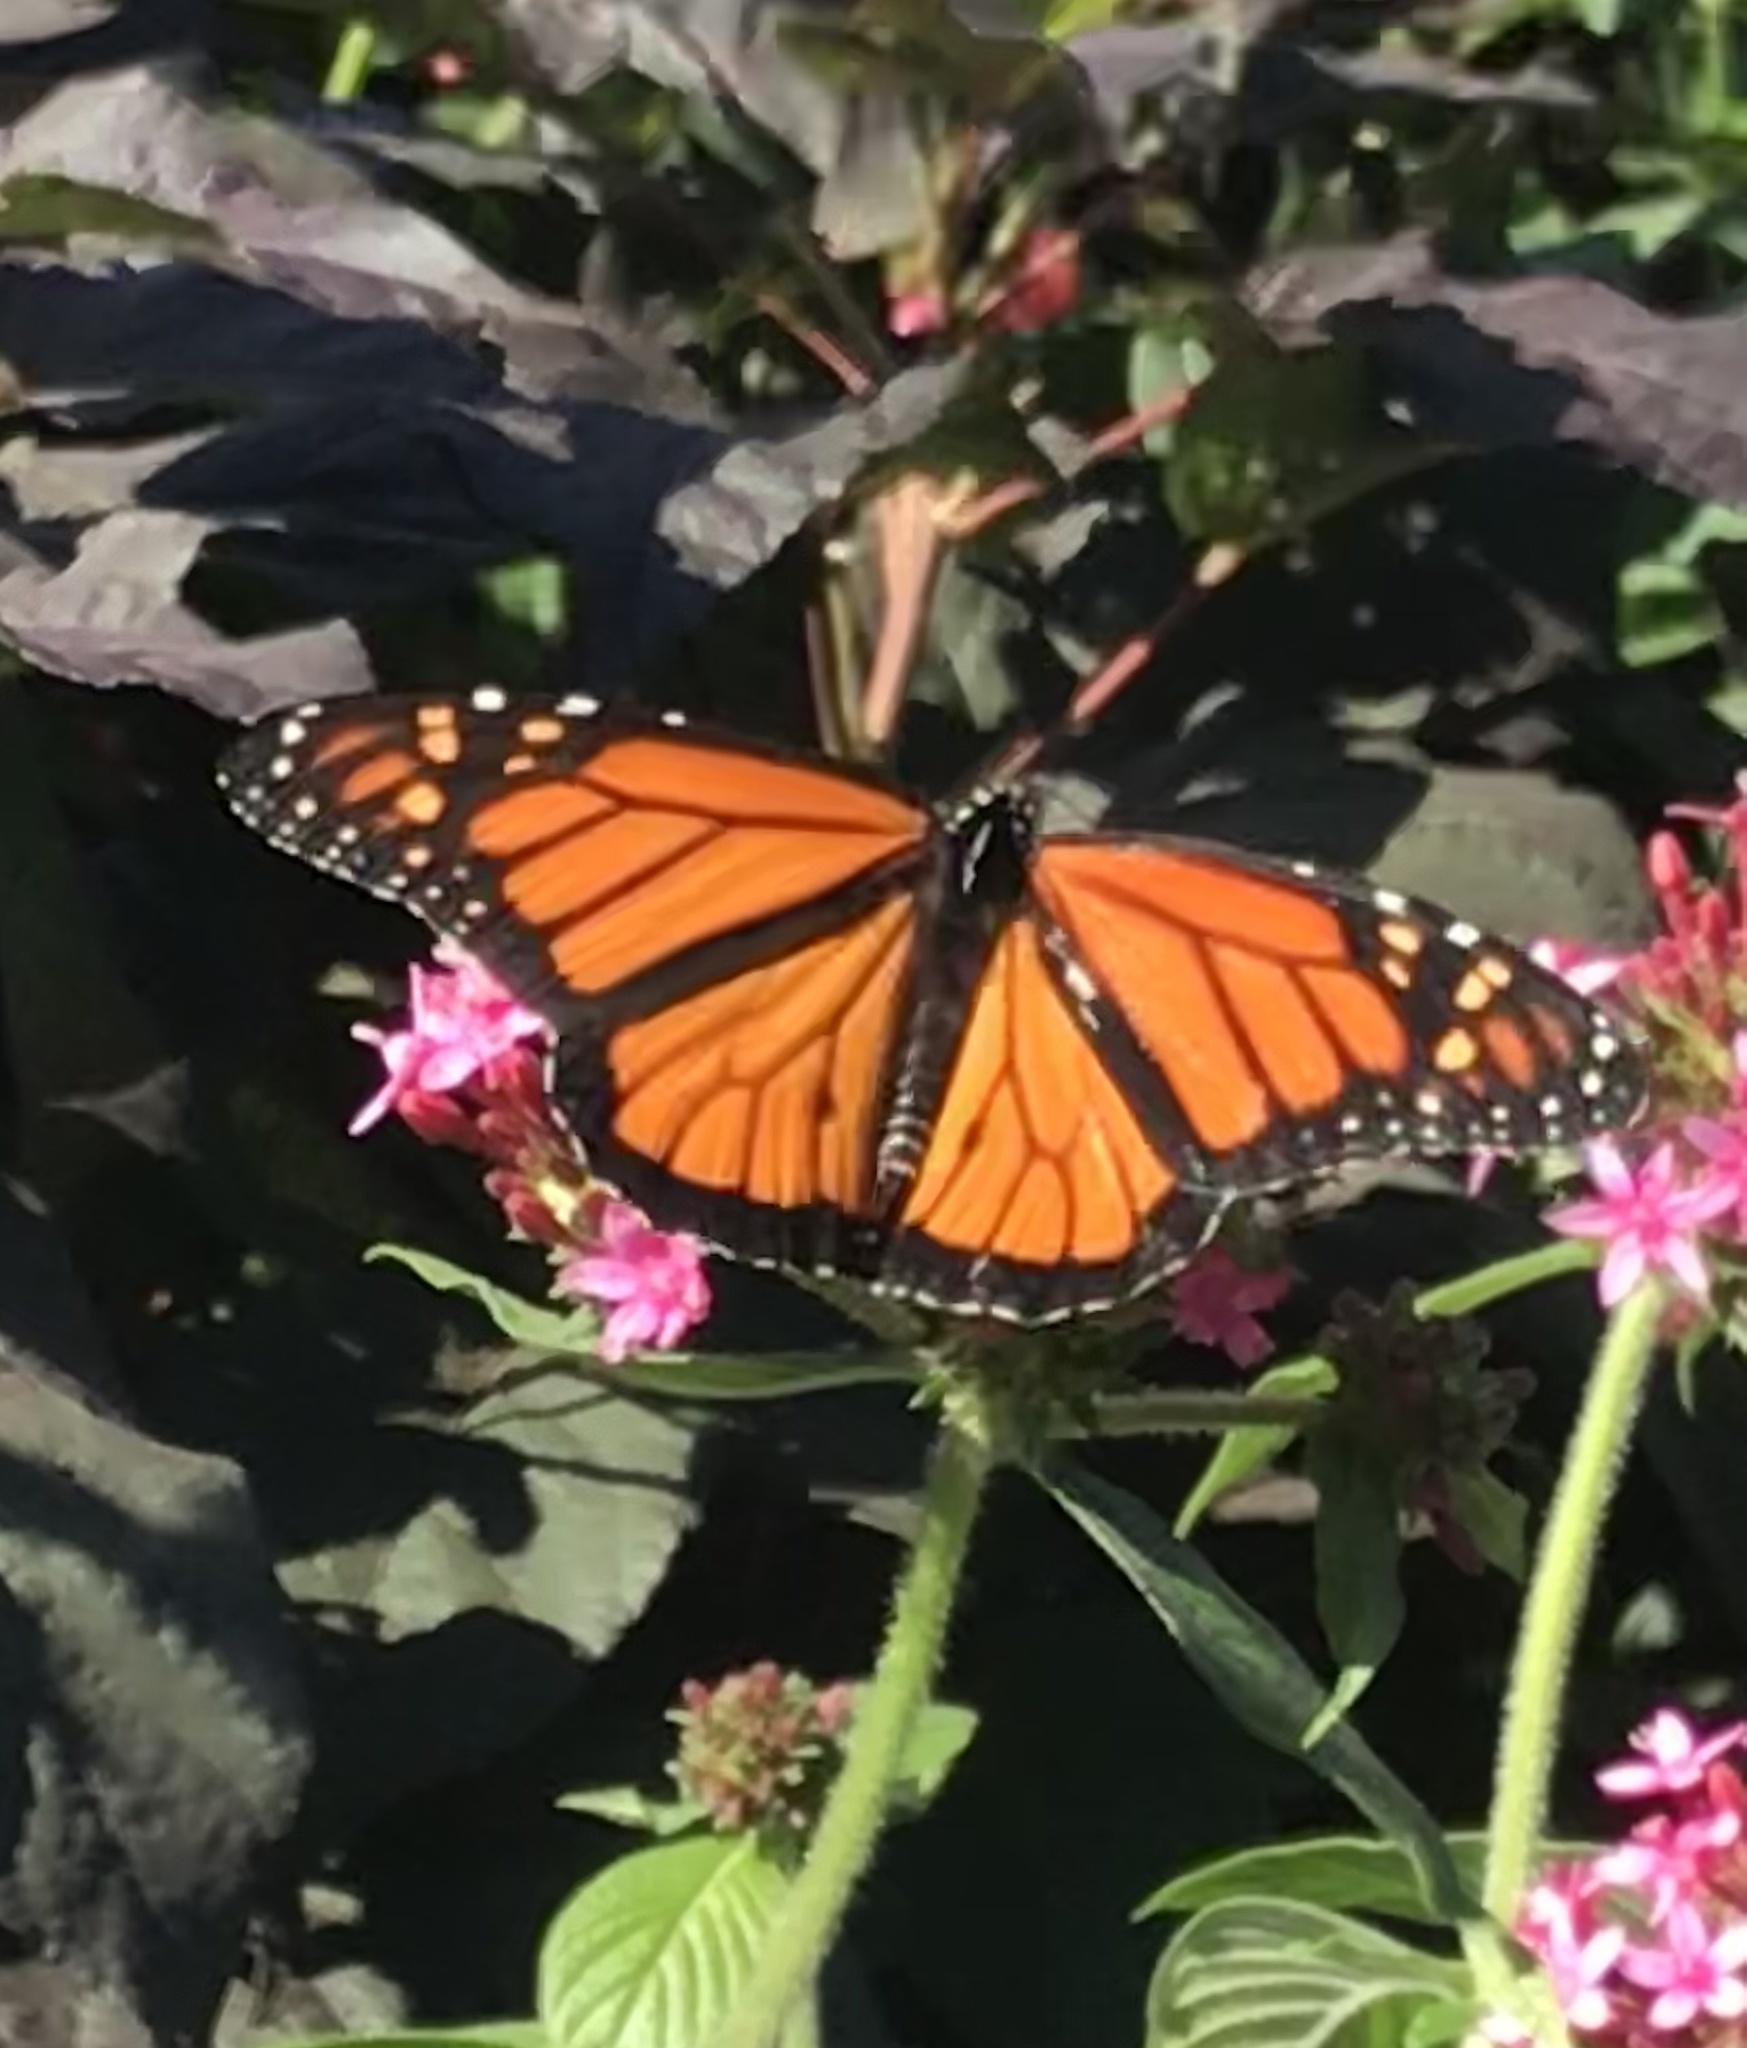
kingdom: Animalia
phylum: Arthropoda
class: Insecta
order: Lepidoptera
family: Nymphalidae
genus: Danaus
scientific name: Danaus plexippus
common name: Monarch
